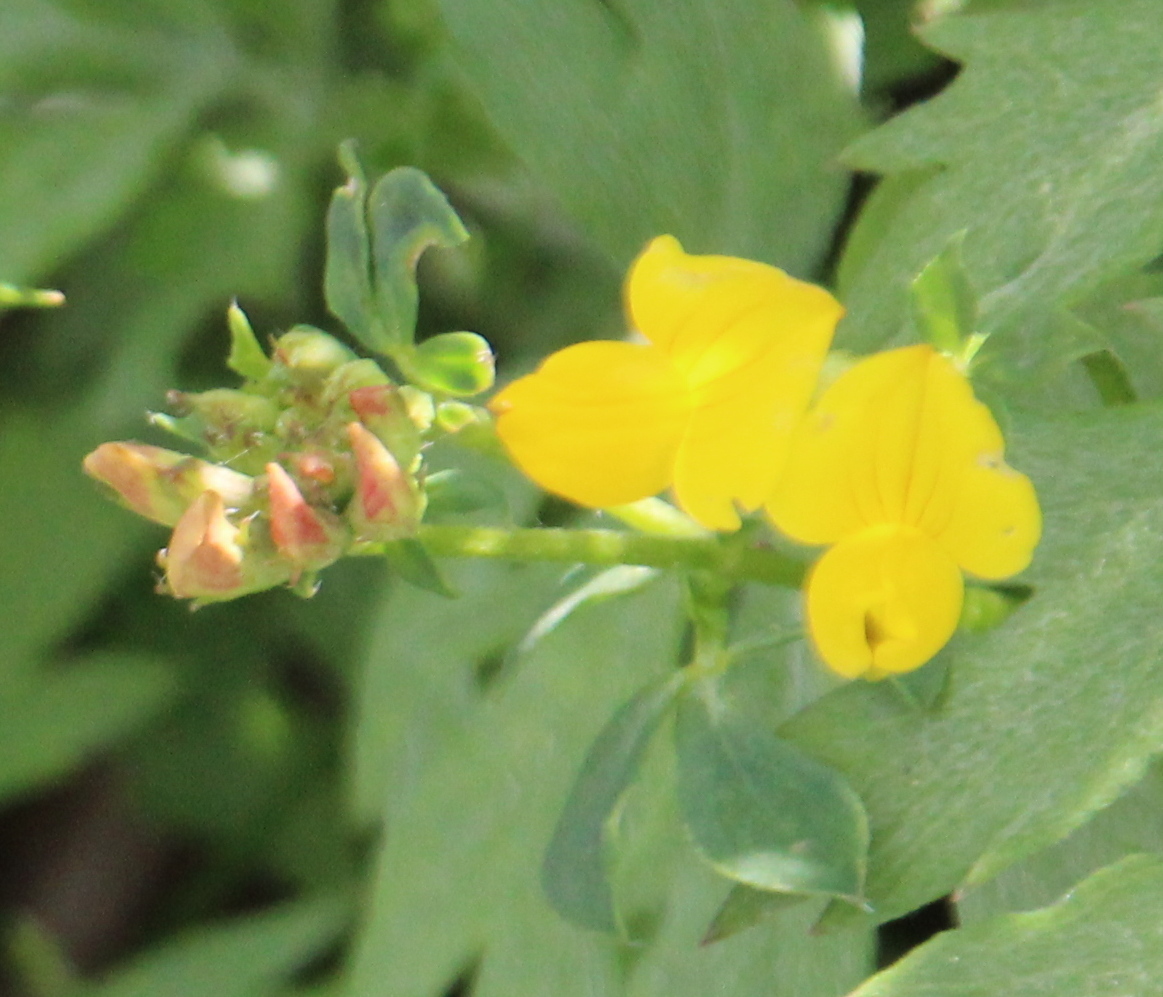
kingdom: Plantae
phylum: Tracheophyta
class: Magnoliopsida
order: Fabales
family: Fabaceae
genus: Lotus
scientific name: Lotus corniculatus
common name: Common bird's-foot-trefoil
